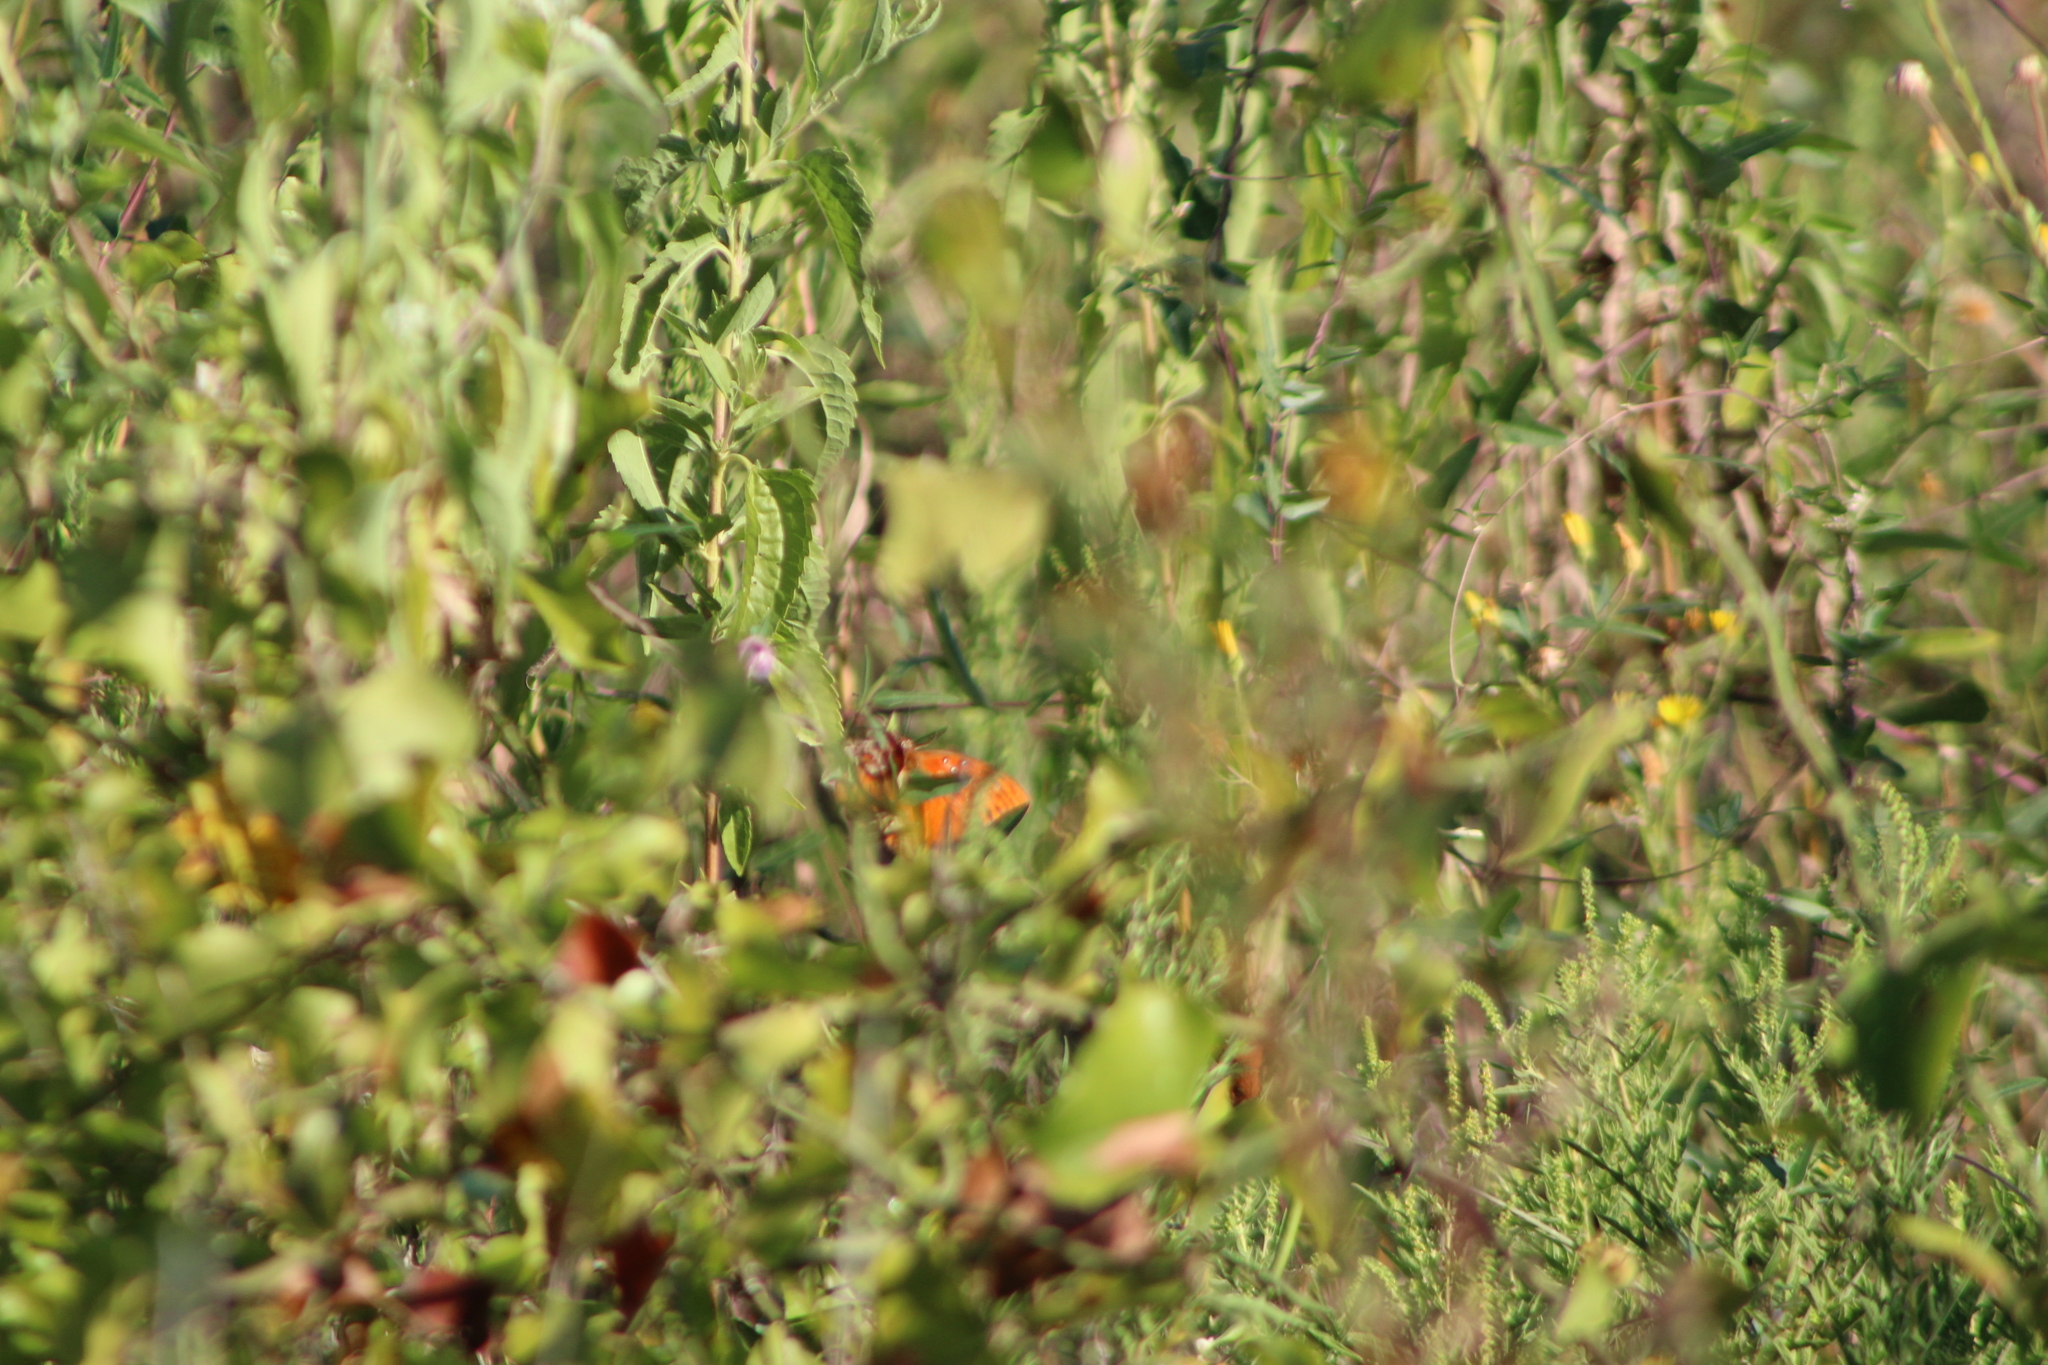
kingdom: Animalia
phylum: Arthropoda
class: Insecta
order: Lepidoptera
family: Nymphalidae
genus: Dione
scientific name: Dione vanillae
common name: Gulf fritillary
